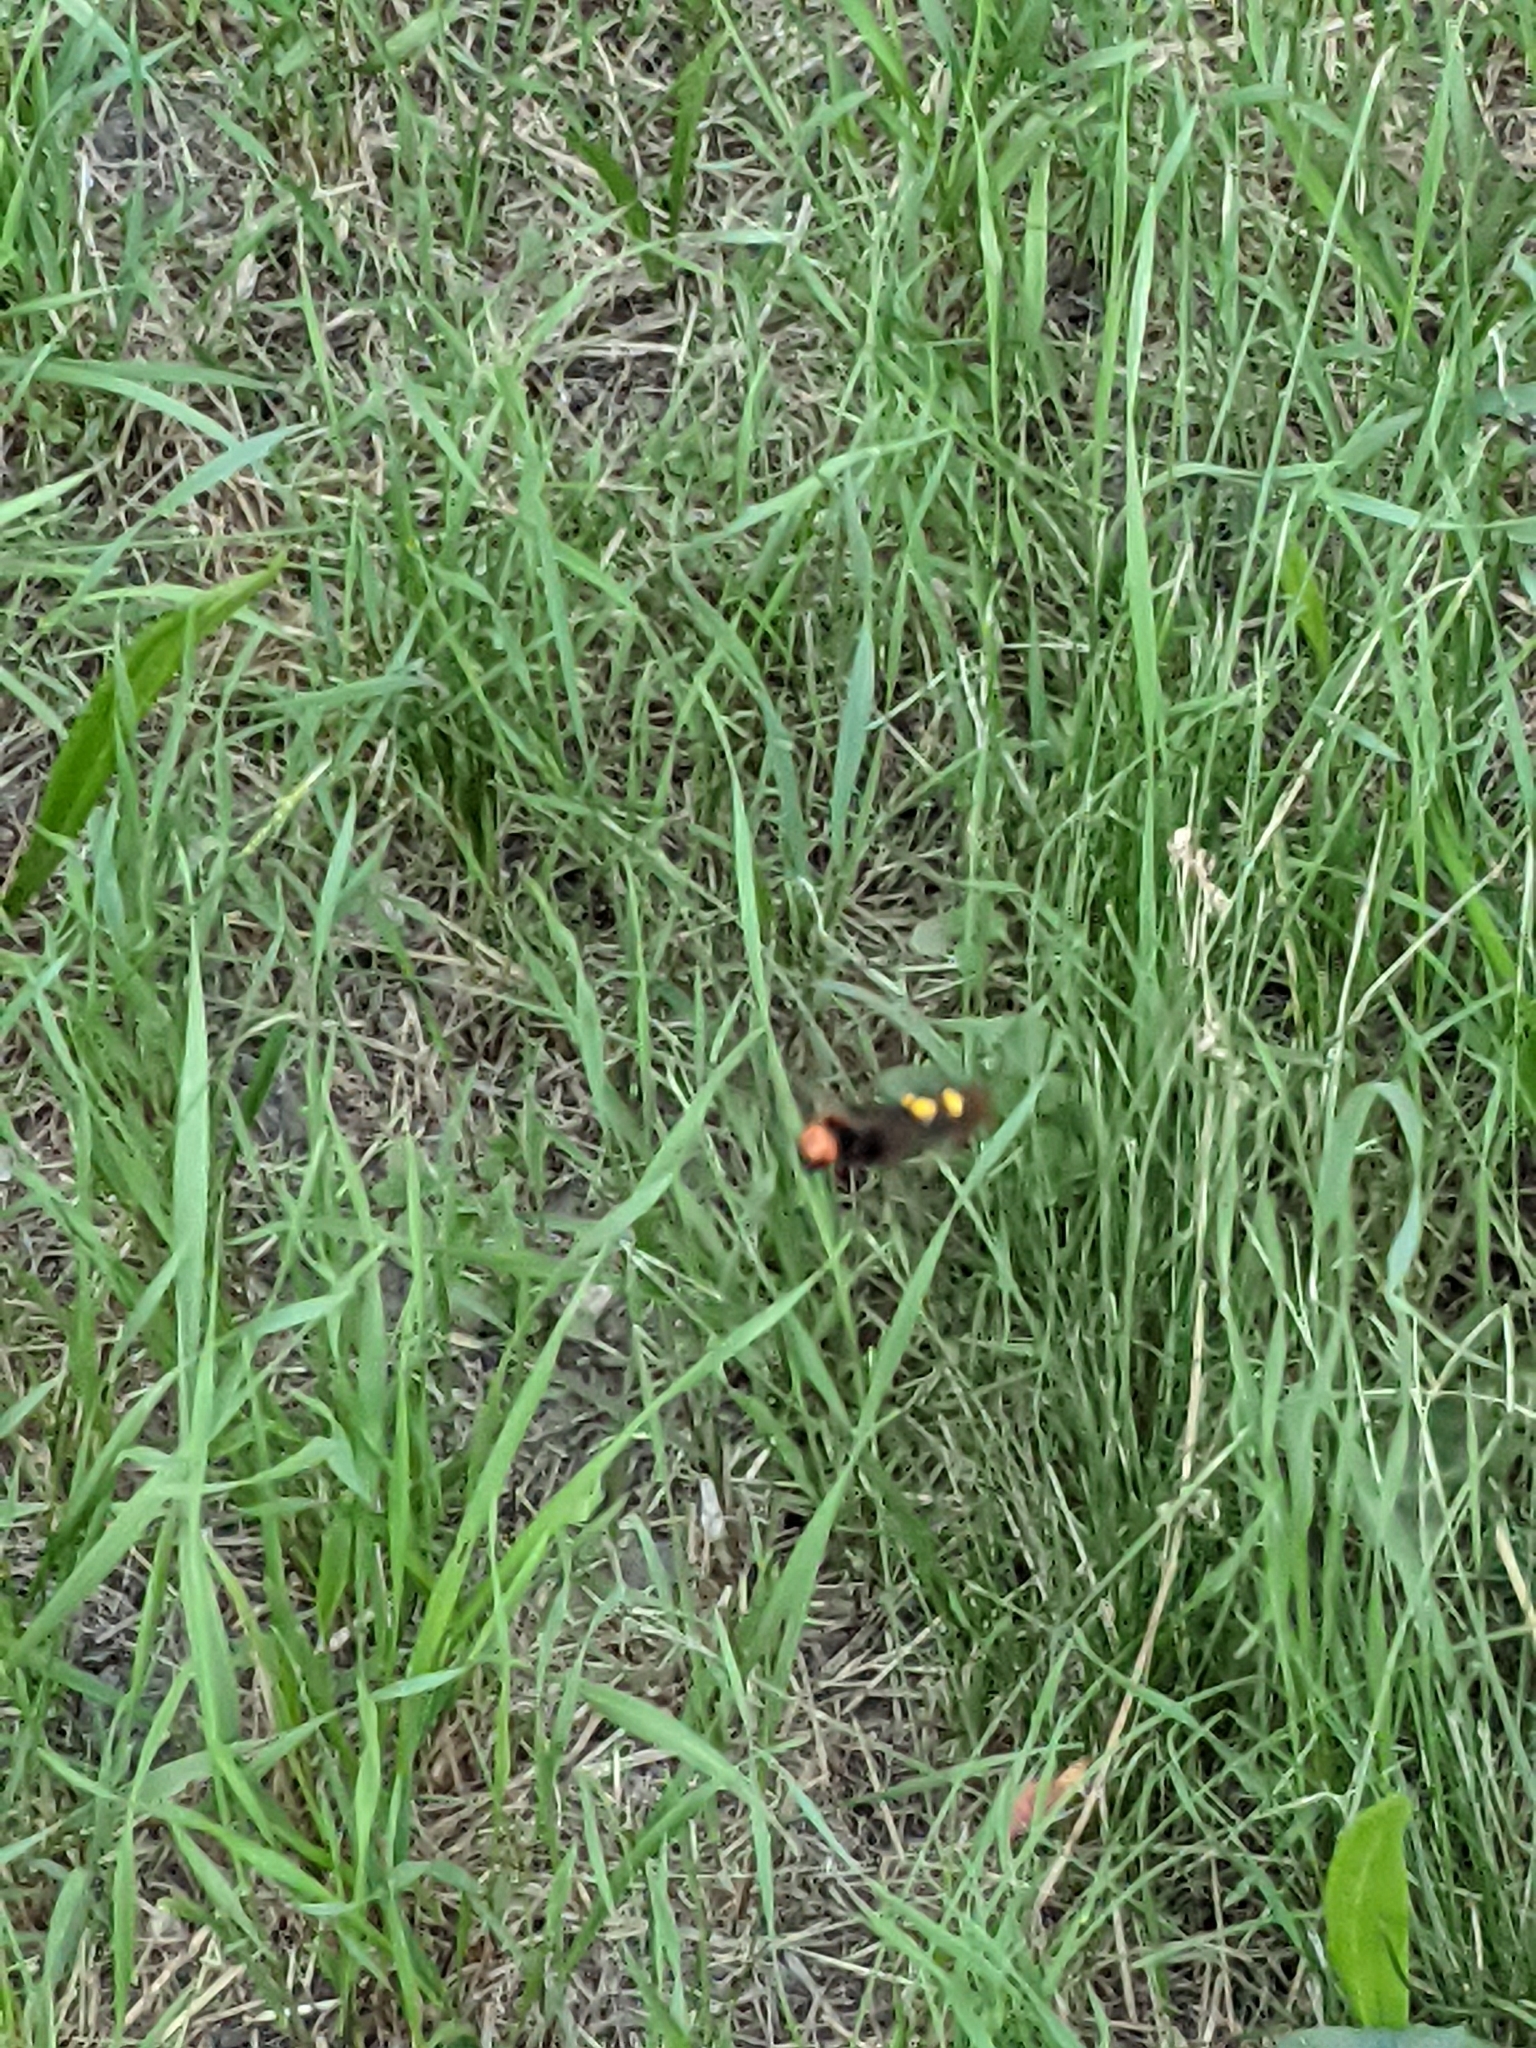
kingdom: Animalia
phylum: Arthropoda
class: Insecta
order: Hymenoptera
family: Scoliidae
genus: Megascolia
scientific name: Megascolia maculata
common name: Mammoth wasp
